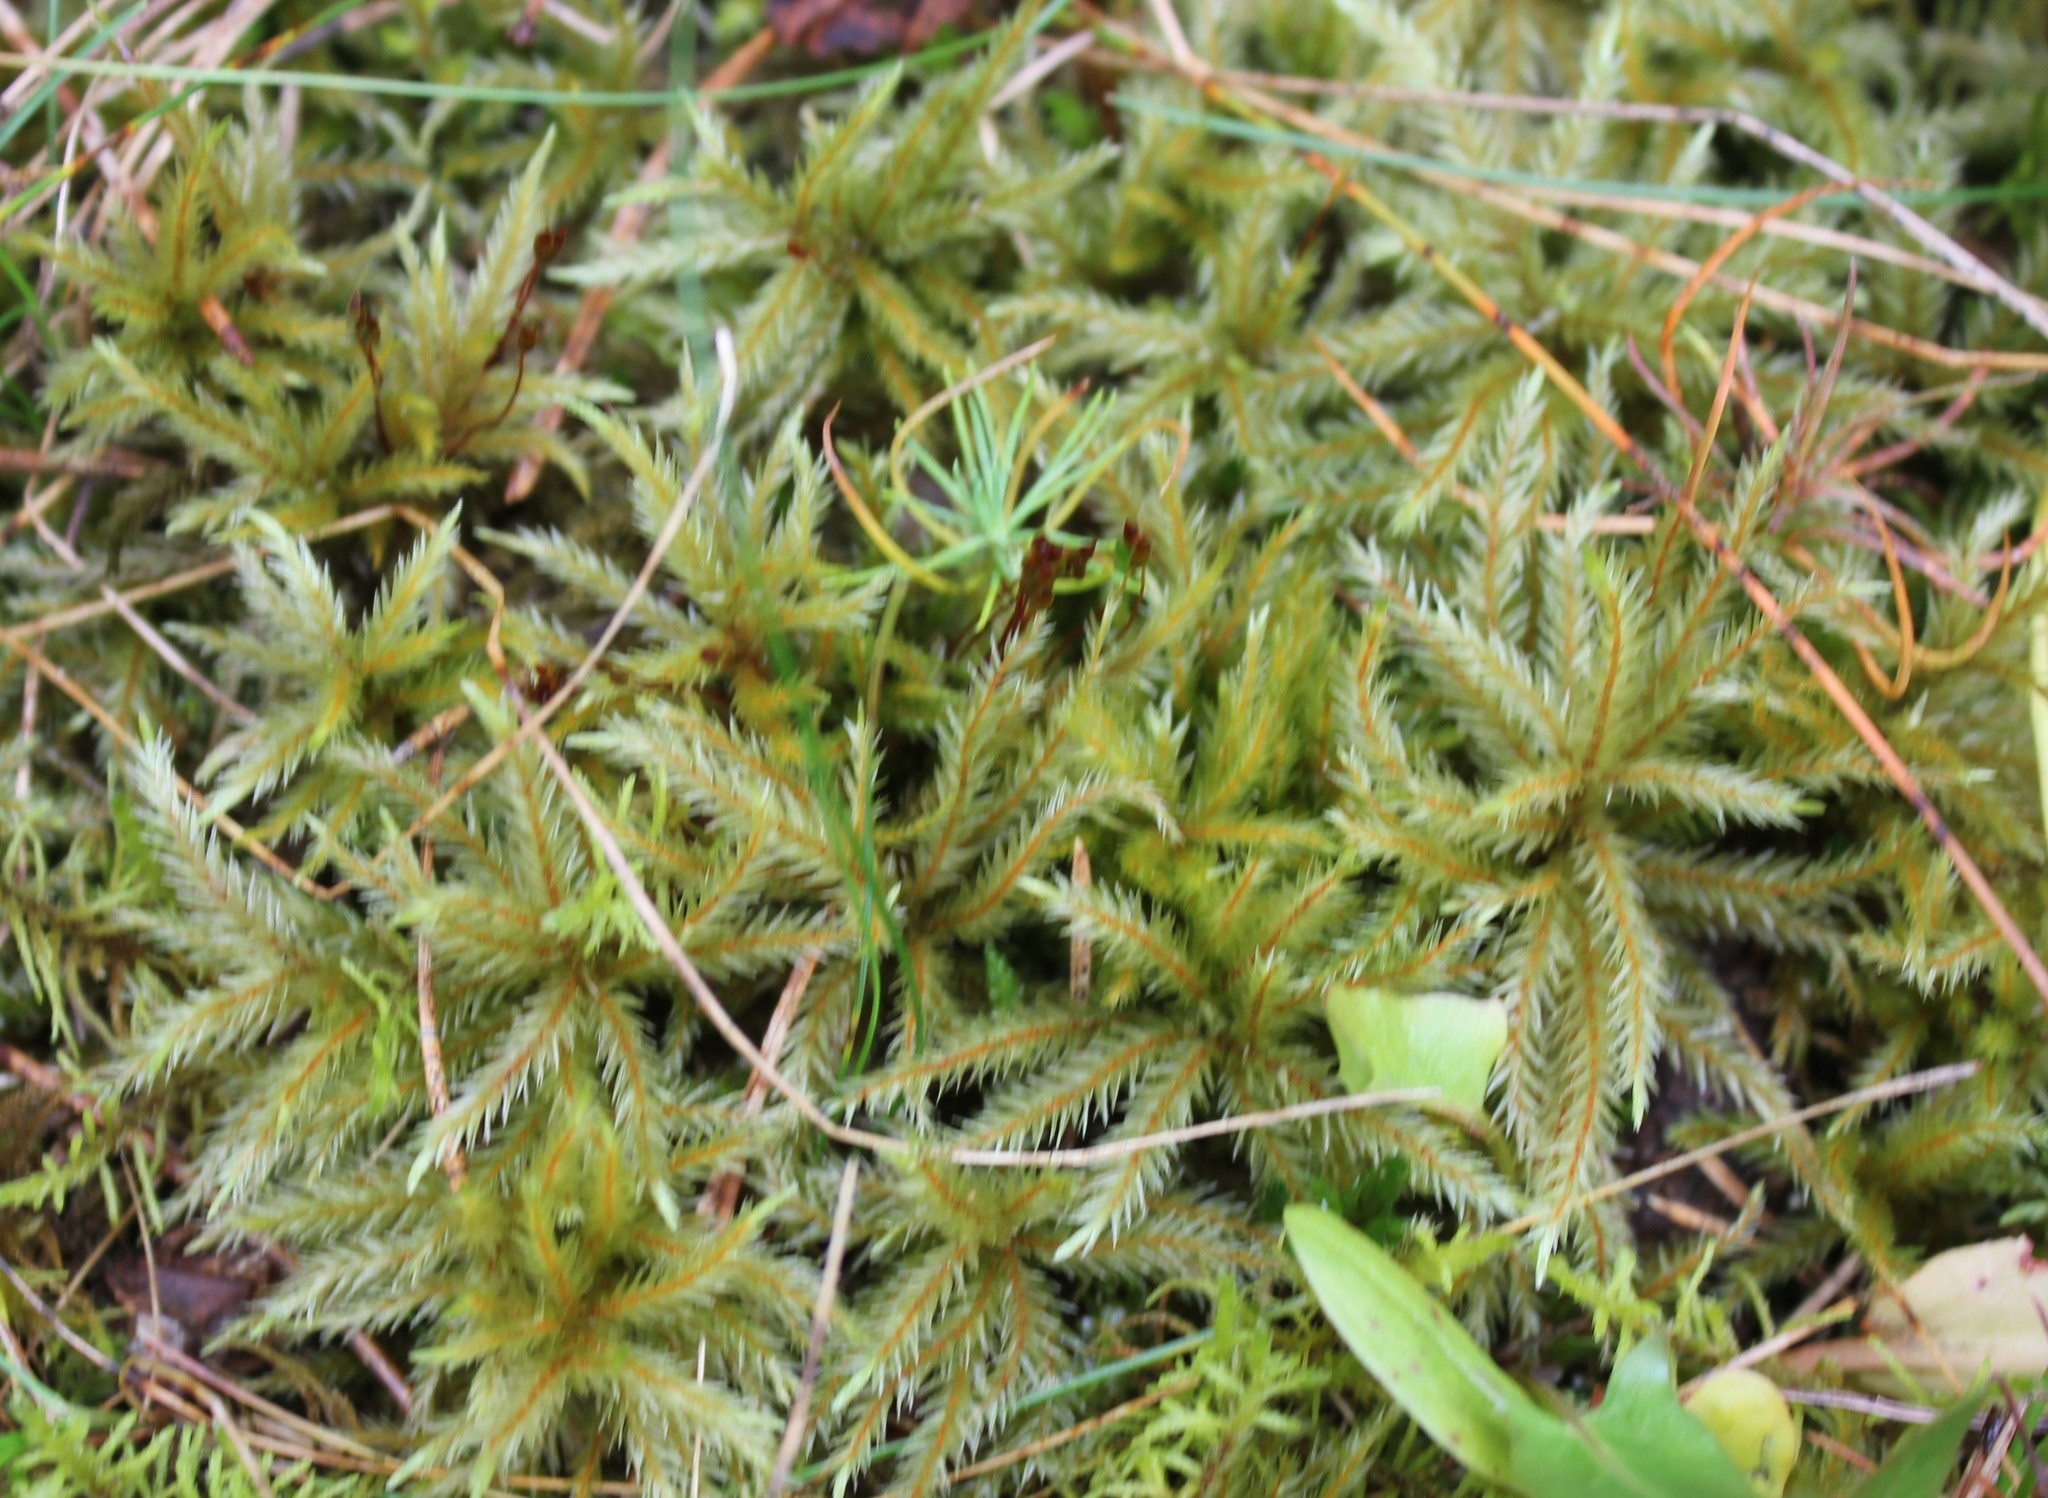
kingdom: Plantae
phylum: Bryophyta
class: Bryopsida
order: Hypnales
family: Climaciaceae
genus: Climacium
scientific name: Climacium dendroides
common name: Northern tree moss
